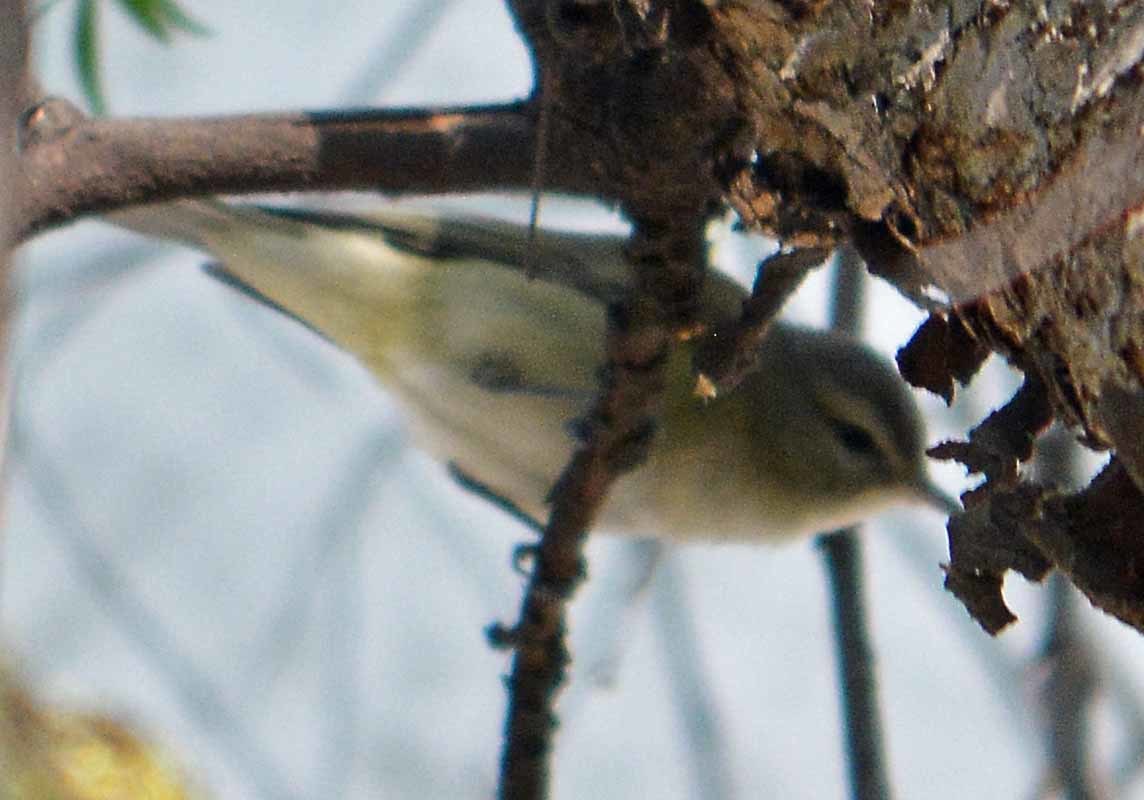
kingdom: Animalia
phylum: Chordata
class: Aves
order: Passeriformes
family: Vireonidae
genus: Vireo
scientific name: Vireo gilvus
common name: Warbling vireo
